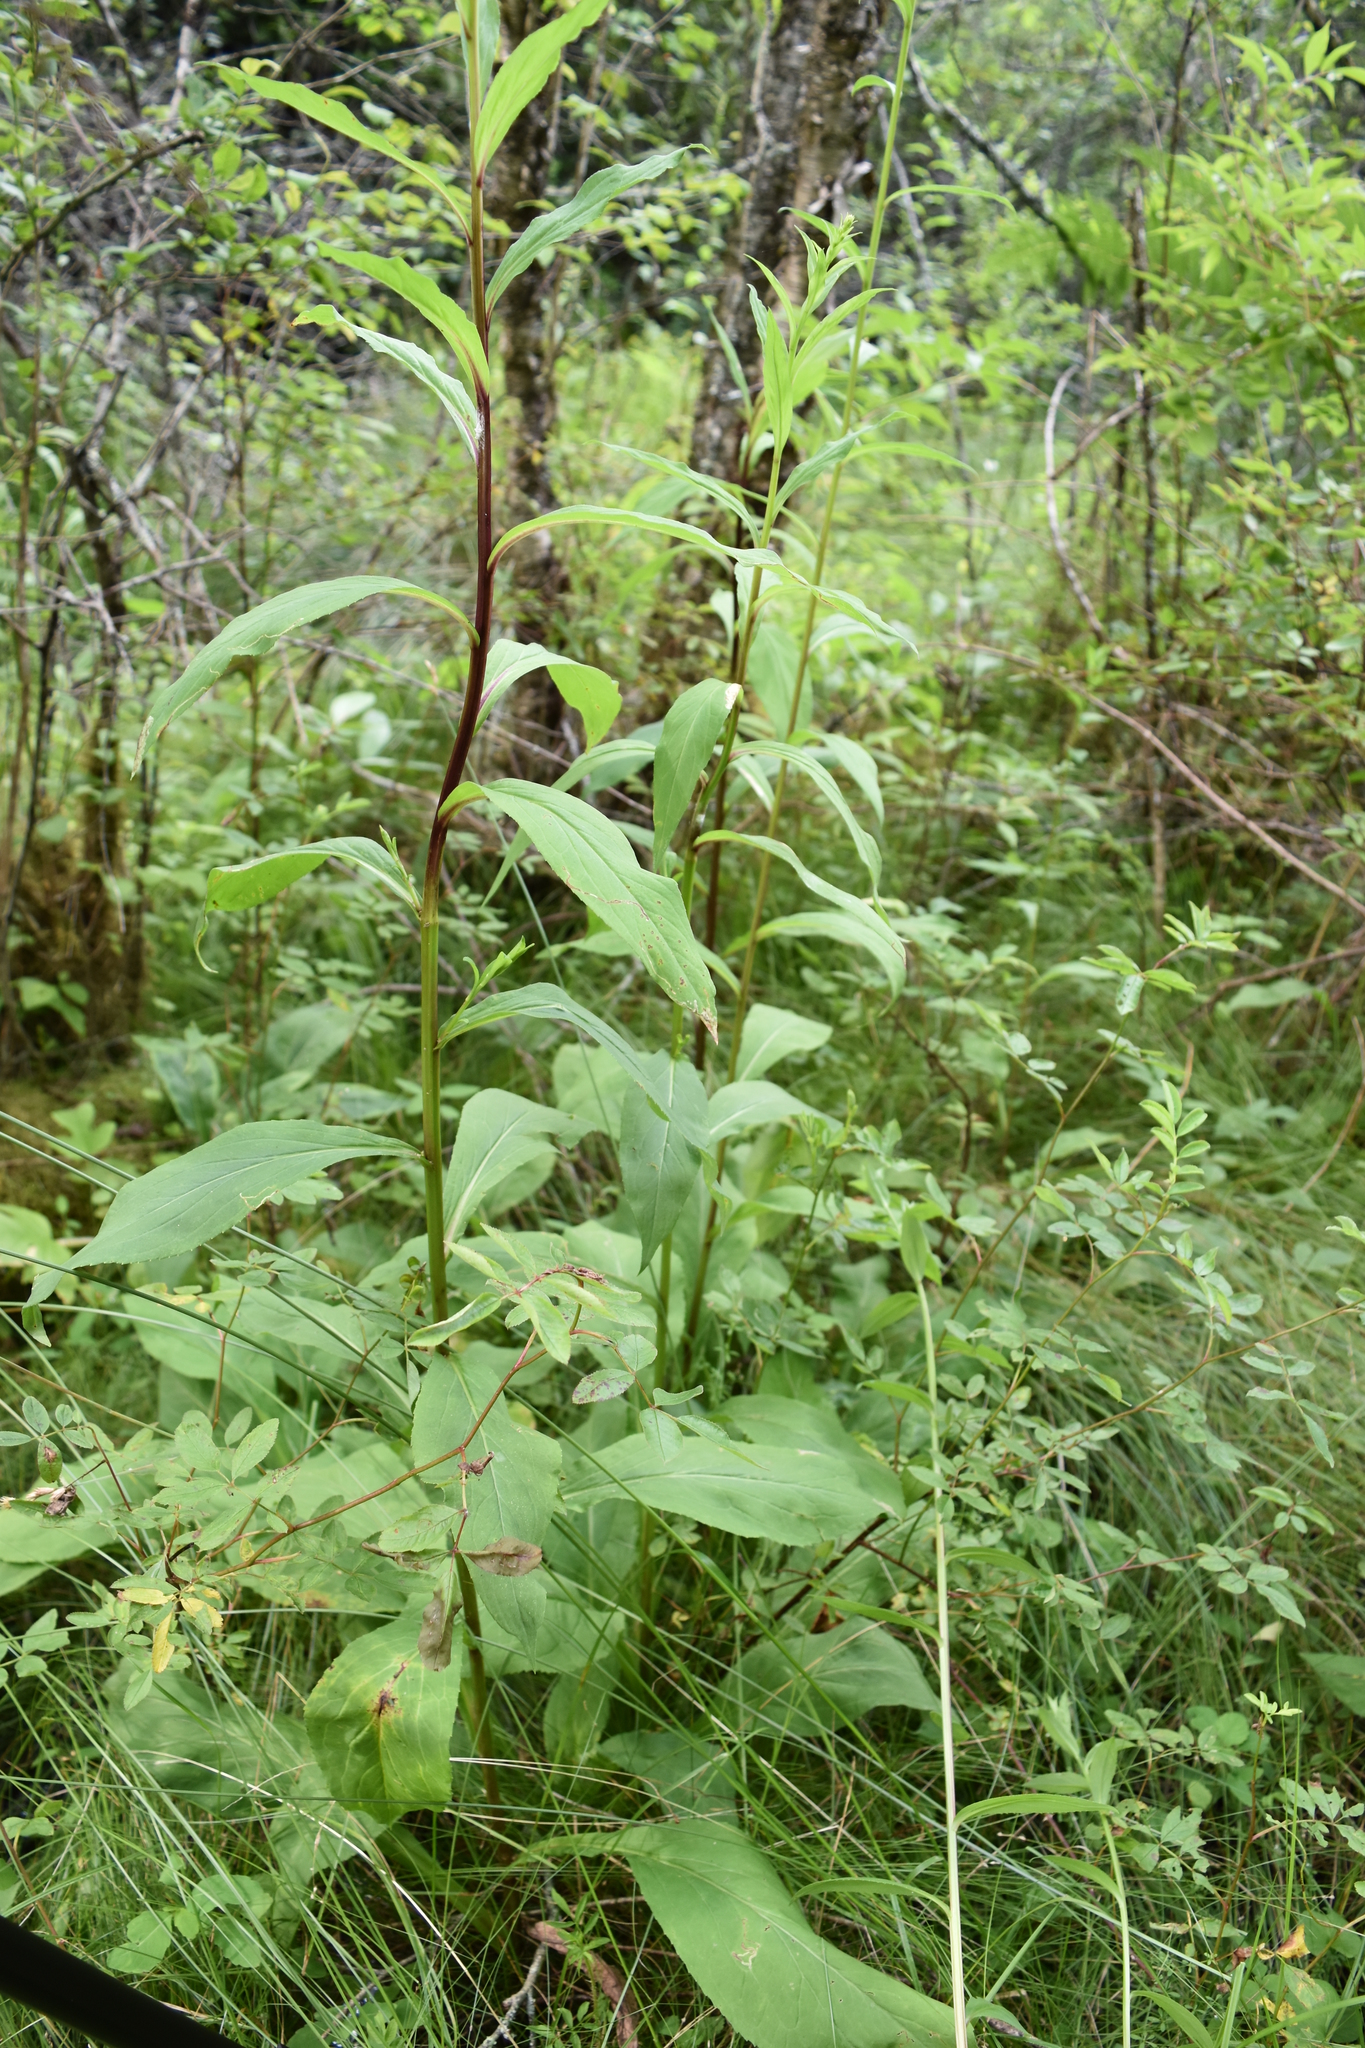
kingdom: Plantae
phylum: Tracheophyta
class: Magnoliopsida
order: Asterales
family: Asteraceae
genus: Solidago
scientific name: Solidago patula
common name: Rough-leaf goldenrod
